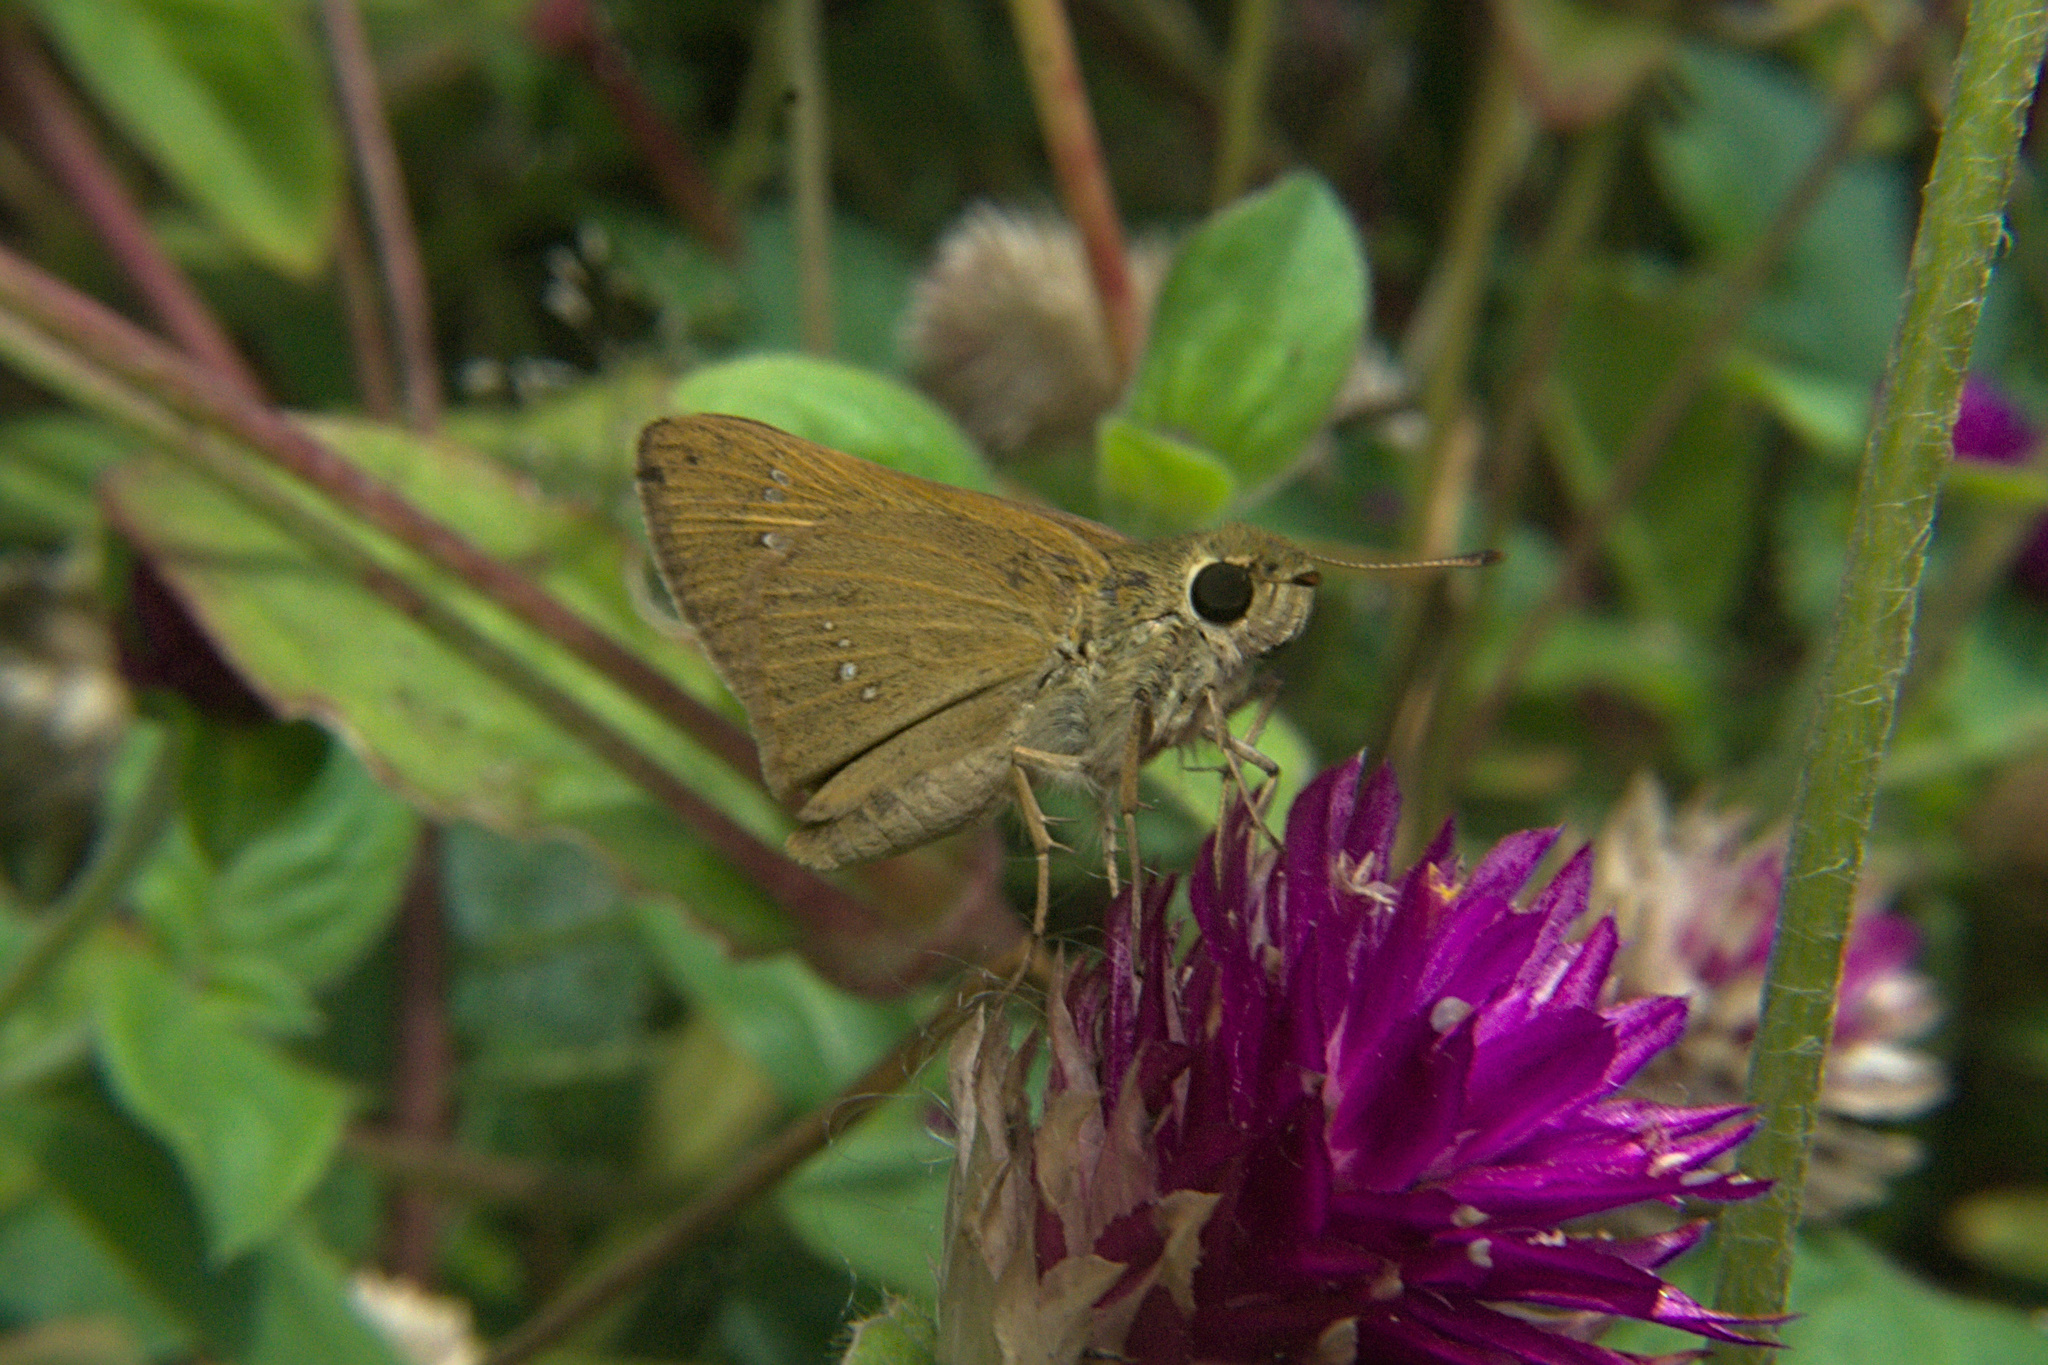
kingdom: Animalia
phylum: Arthropoda
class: Insecta
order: Lepidoptera
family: Hesperiidae
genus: Polytremis
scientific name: Polytremis lubricans
